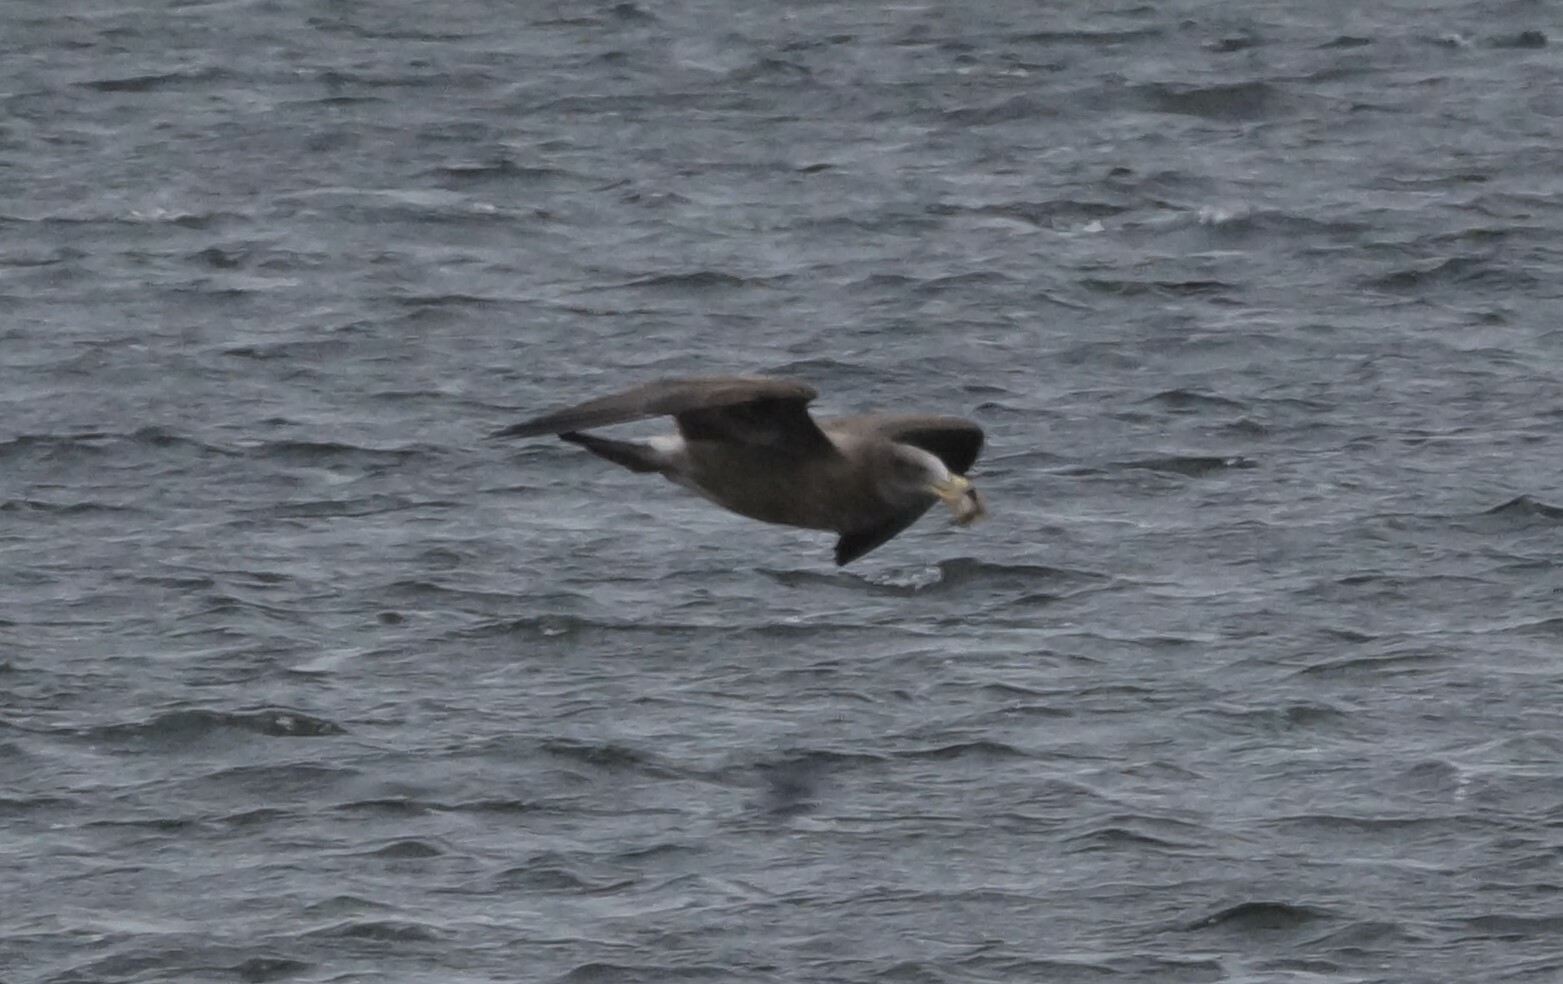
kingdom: Animalia
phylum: Chordata
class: Aves
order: Charadriiformes
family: Laridae
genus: Larus
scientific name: Larus pacificus
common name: Pacific gull
